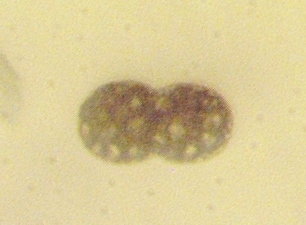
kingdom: Bacteria
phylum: Proteobacteria
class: Gammaproteobacteria
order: Chromatiales
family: Chromatiaceae
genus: Achromatium
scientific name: Achromatium oxaliferum
